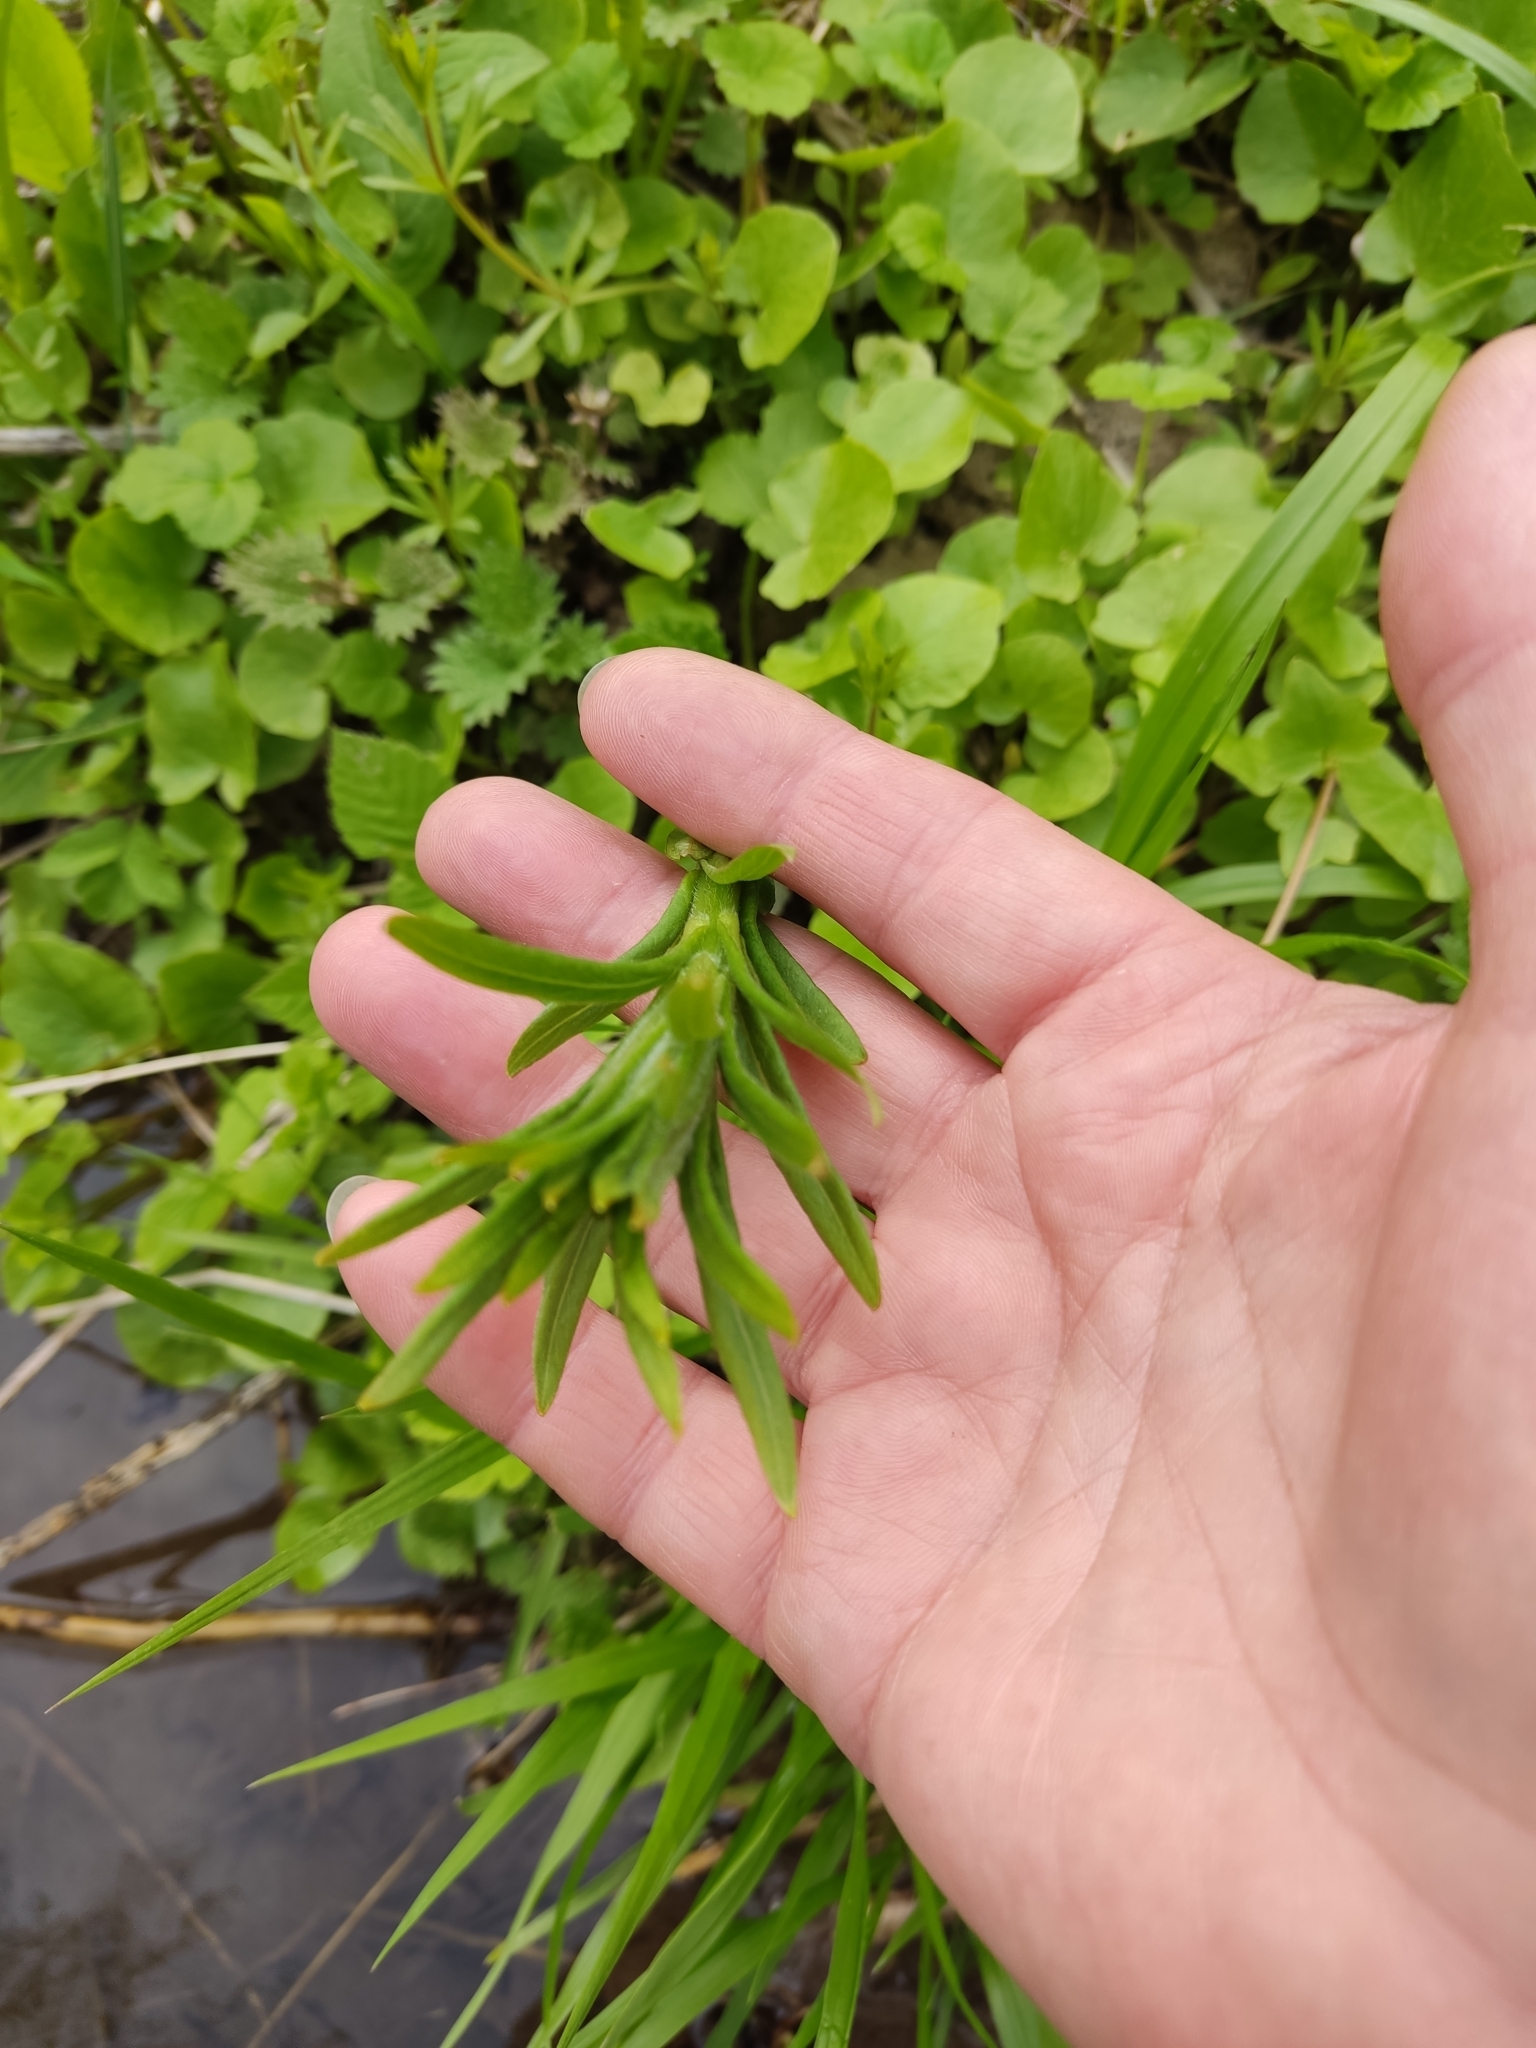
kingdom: Plantae
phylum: Tracheophyta
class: Magnoliopsida
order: Ericales
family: Primulaceae
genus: Lysimachia
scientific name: Lysimachia thyrsiflora
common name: Tufted loosestrife
